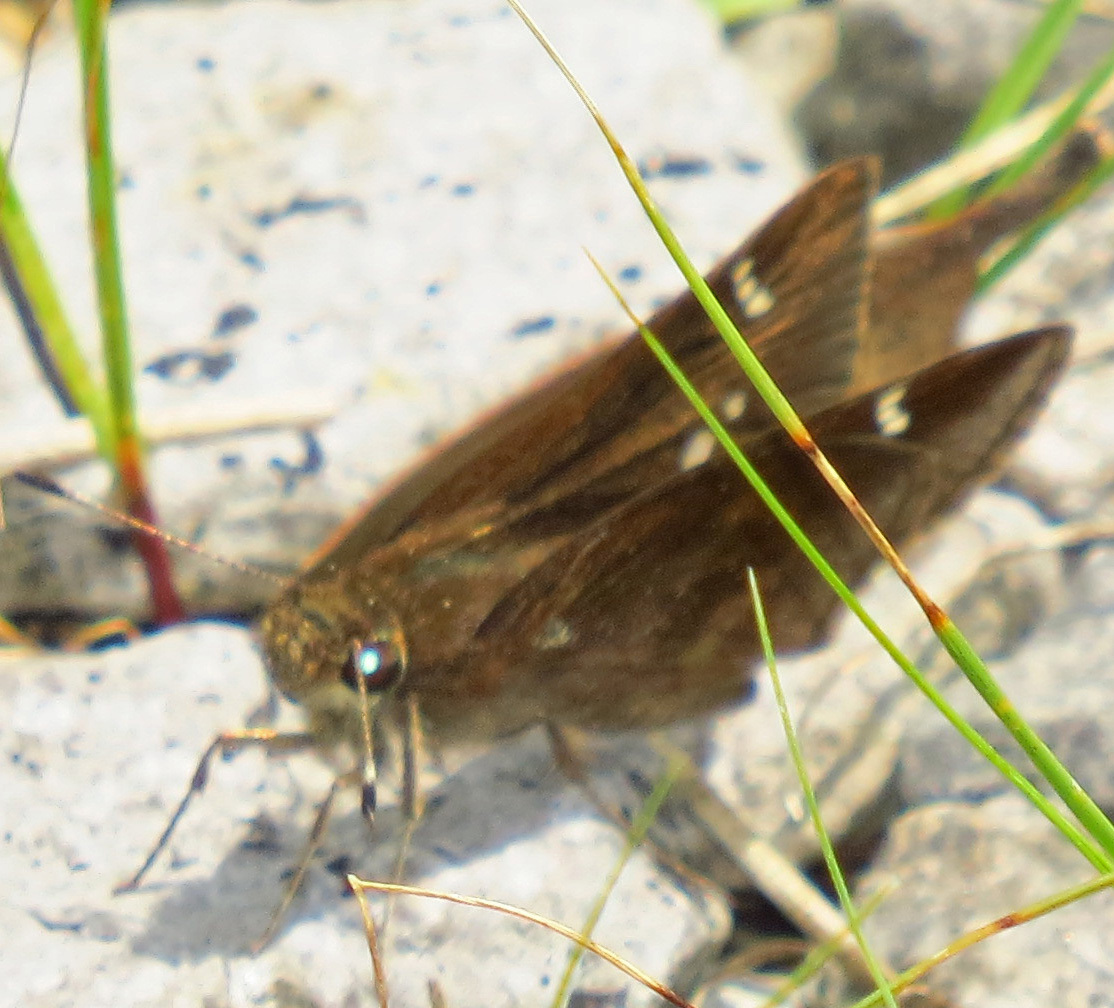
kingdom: Animalia
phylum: Arthropoda
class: Insecta
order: Lepidoptera
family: Hesperiidae
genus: Lerema
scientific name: Lerema accius
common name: Clouded skipper
